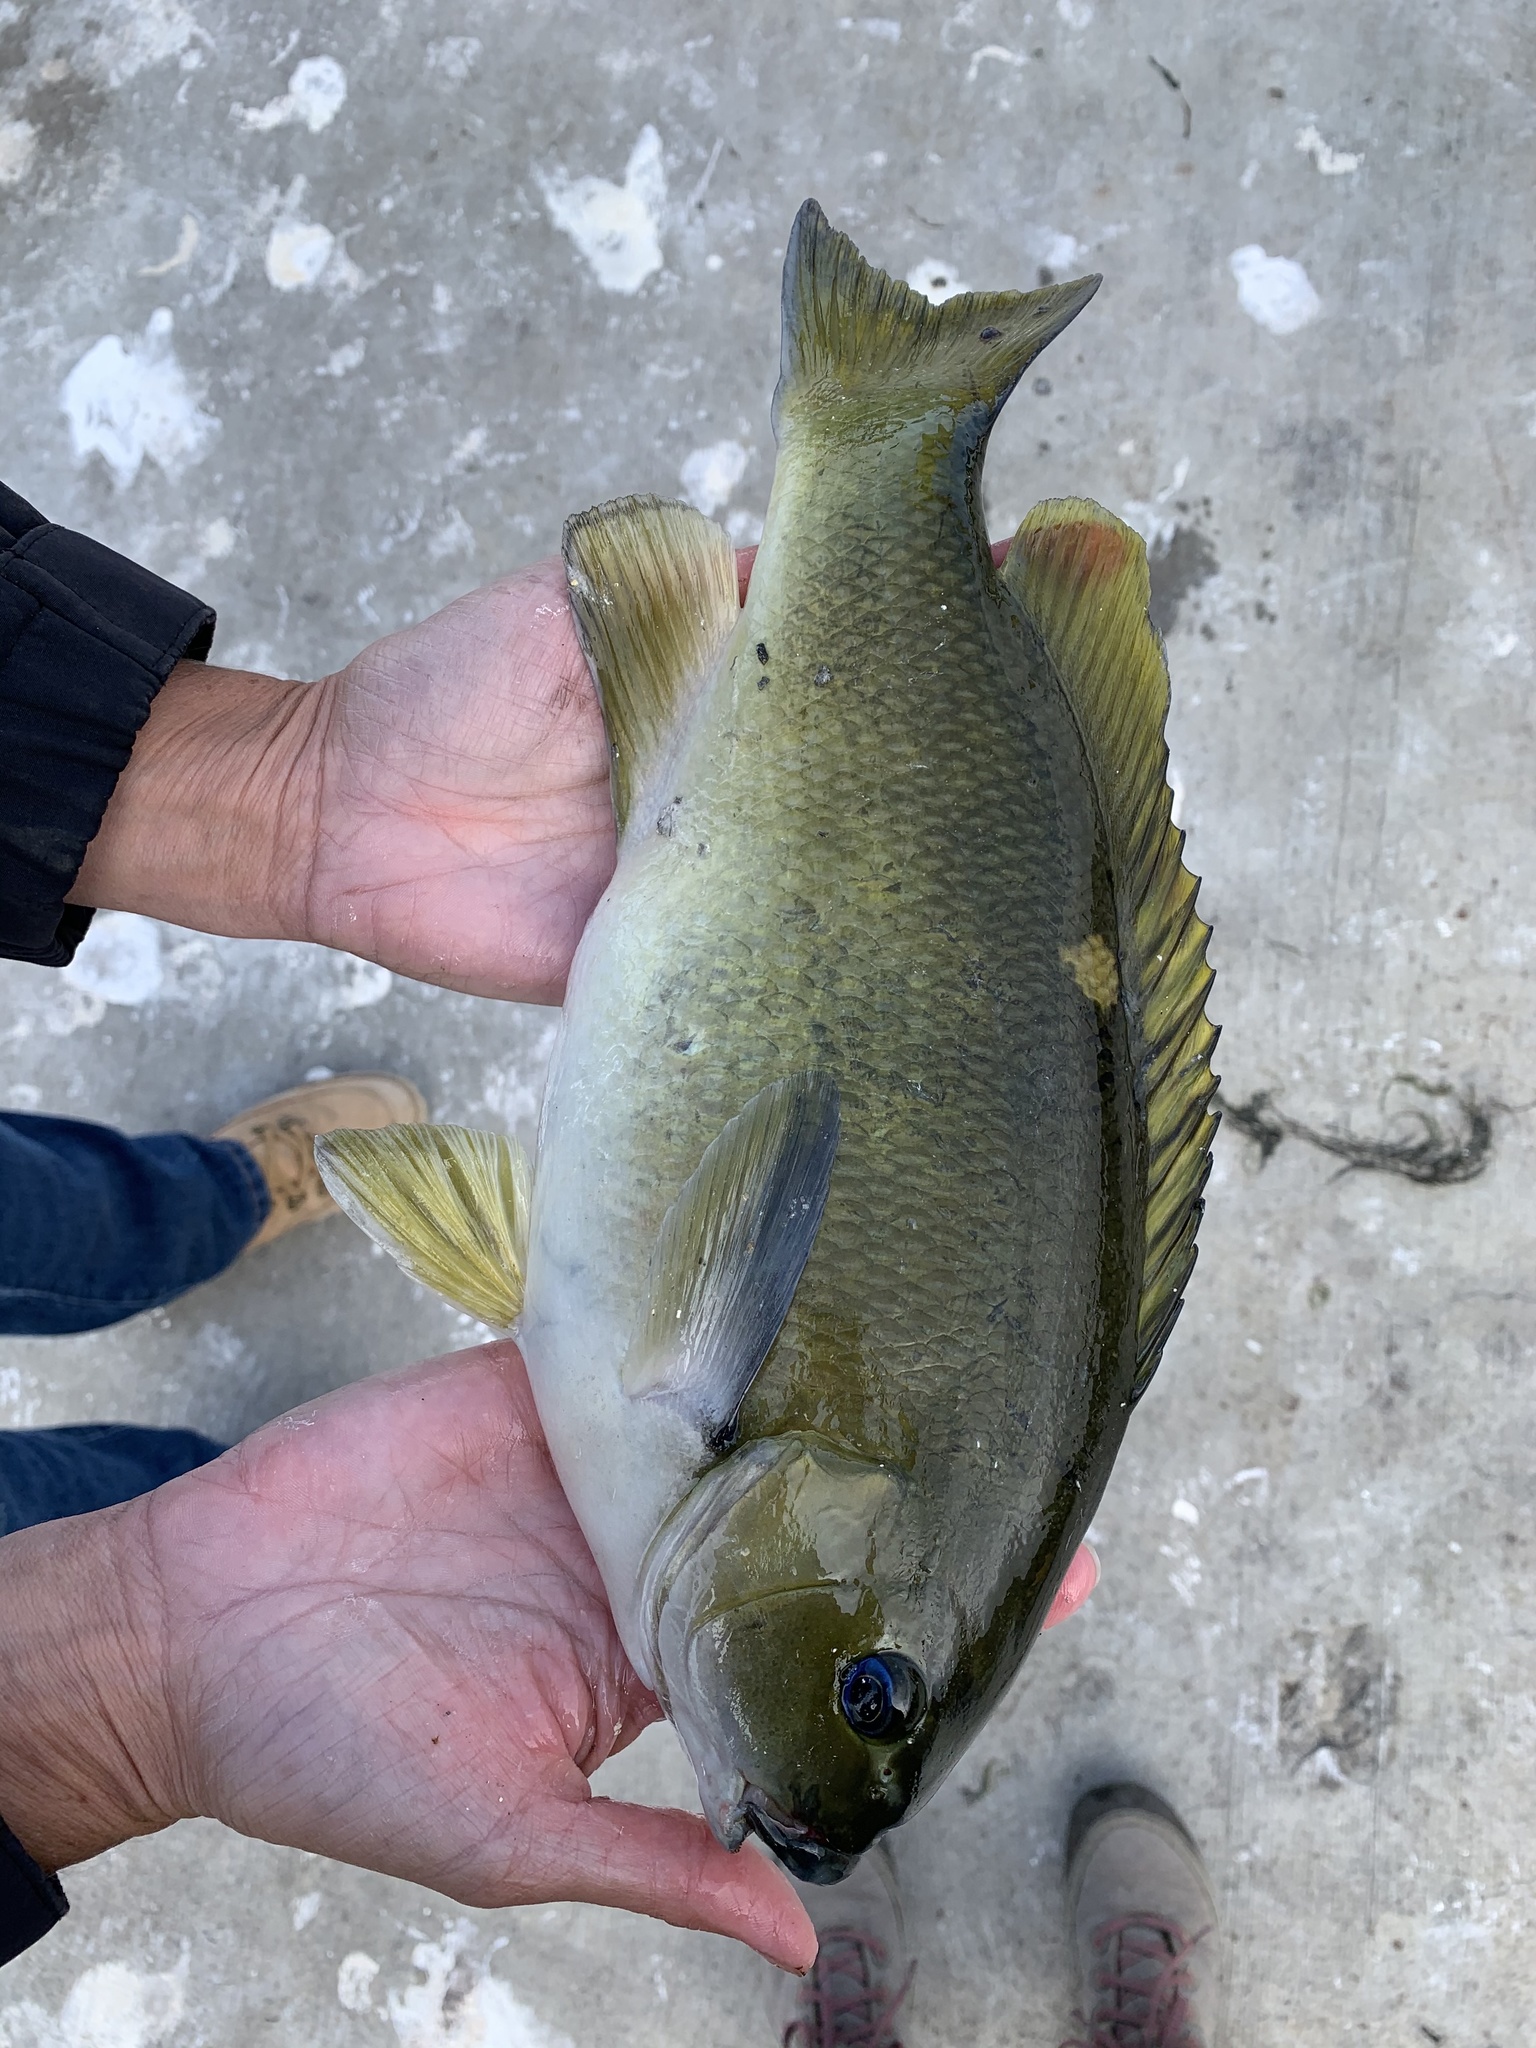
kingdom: Animalia
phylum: Chordata
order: Perciformes
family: Kyphosidae
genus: Girella
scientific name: Girella nigricans
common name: Opaleye
